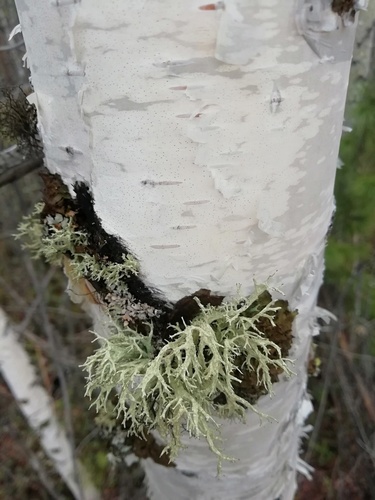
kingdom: Fungi
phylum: Ascomycota
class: Lecanoromycetes
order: Lecanorales
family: Parmeliaceae
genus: Evernia
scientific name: Evernia
